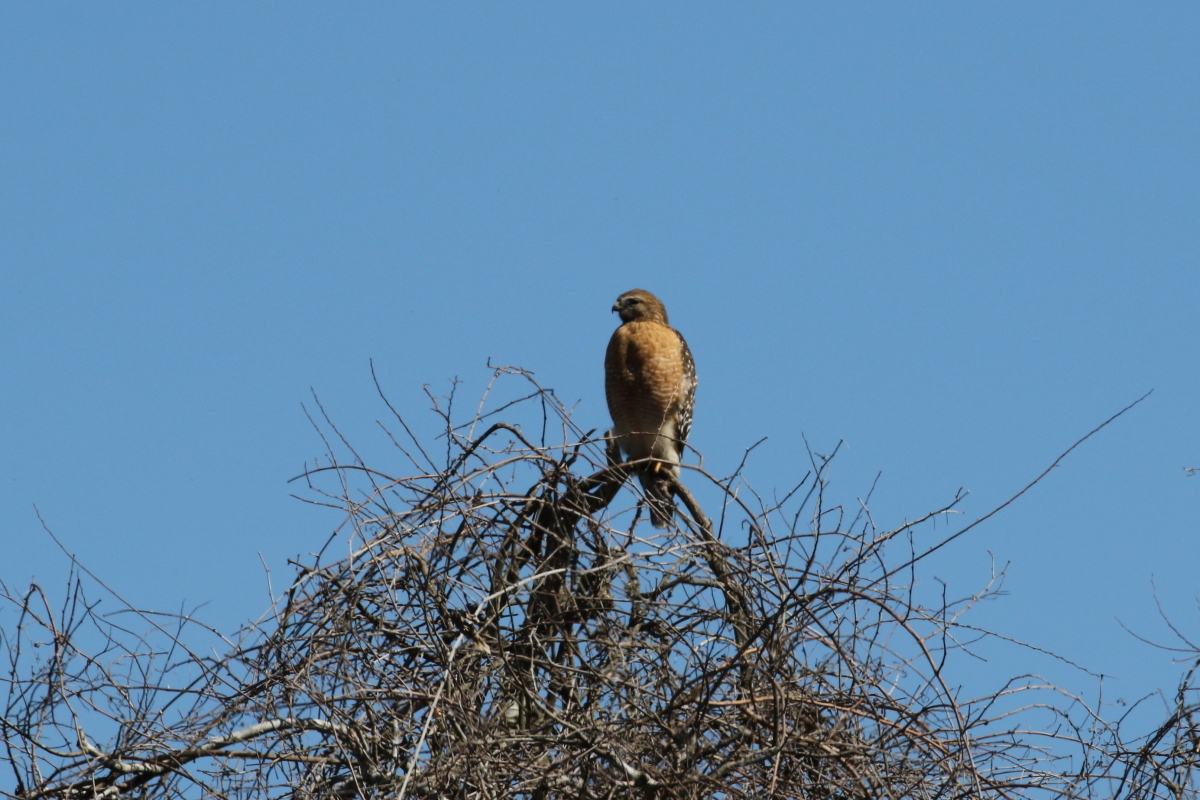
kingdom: Animalia
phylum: Chordata
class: Aves
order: Accipitriformes
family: Accipitridae
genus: Buteo
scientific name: Buteo lineatus
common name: Red-shouldered hawk
